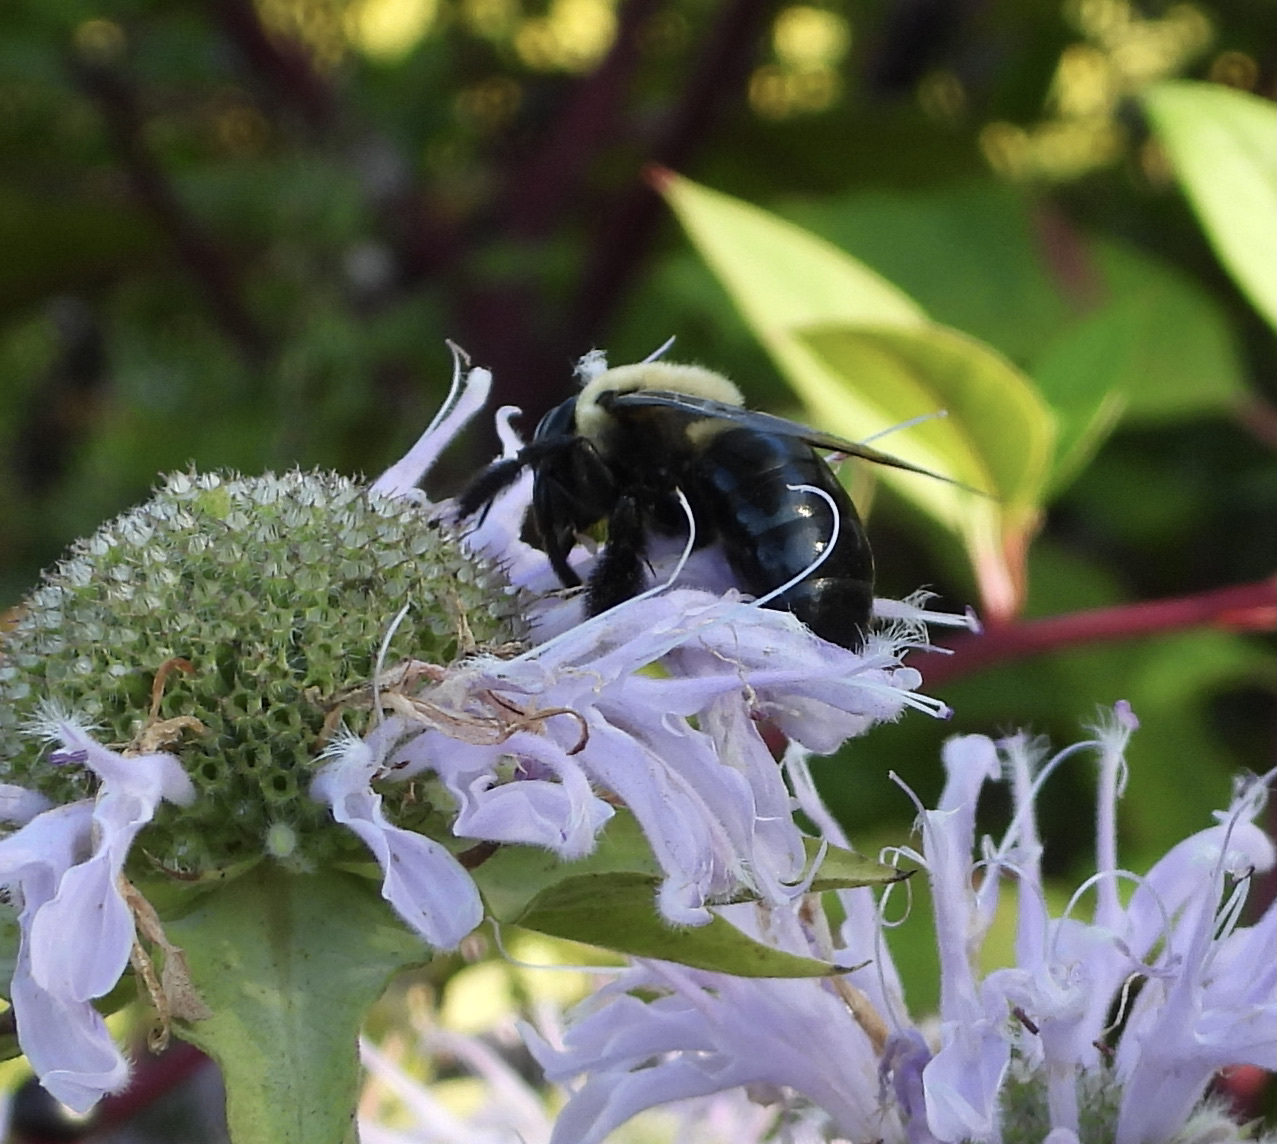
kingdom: Animalia
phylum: Arthropoda
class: Insecta
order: Hymenoptera
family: Apidae
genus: Xylocopa
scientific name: Xylocopa virginica
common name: Carpenter bee
